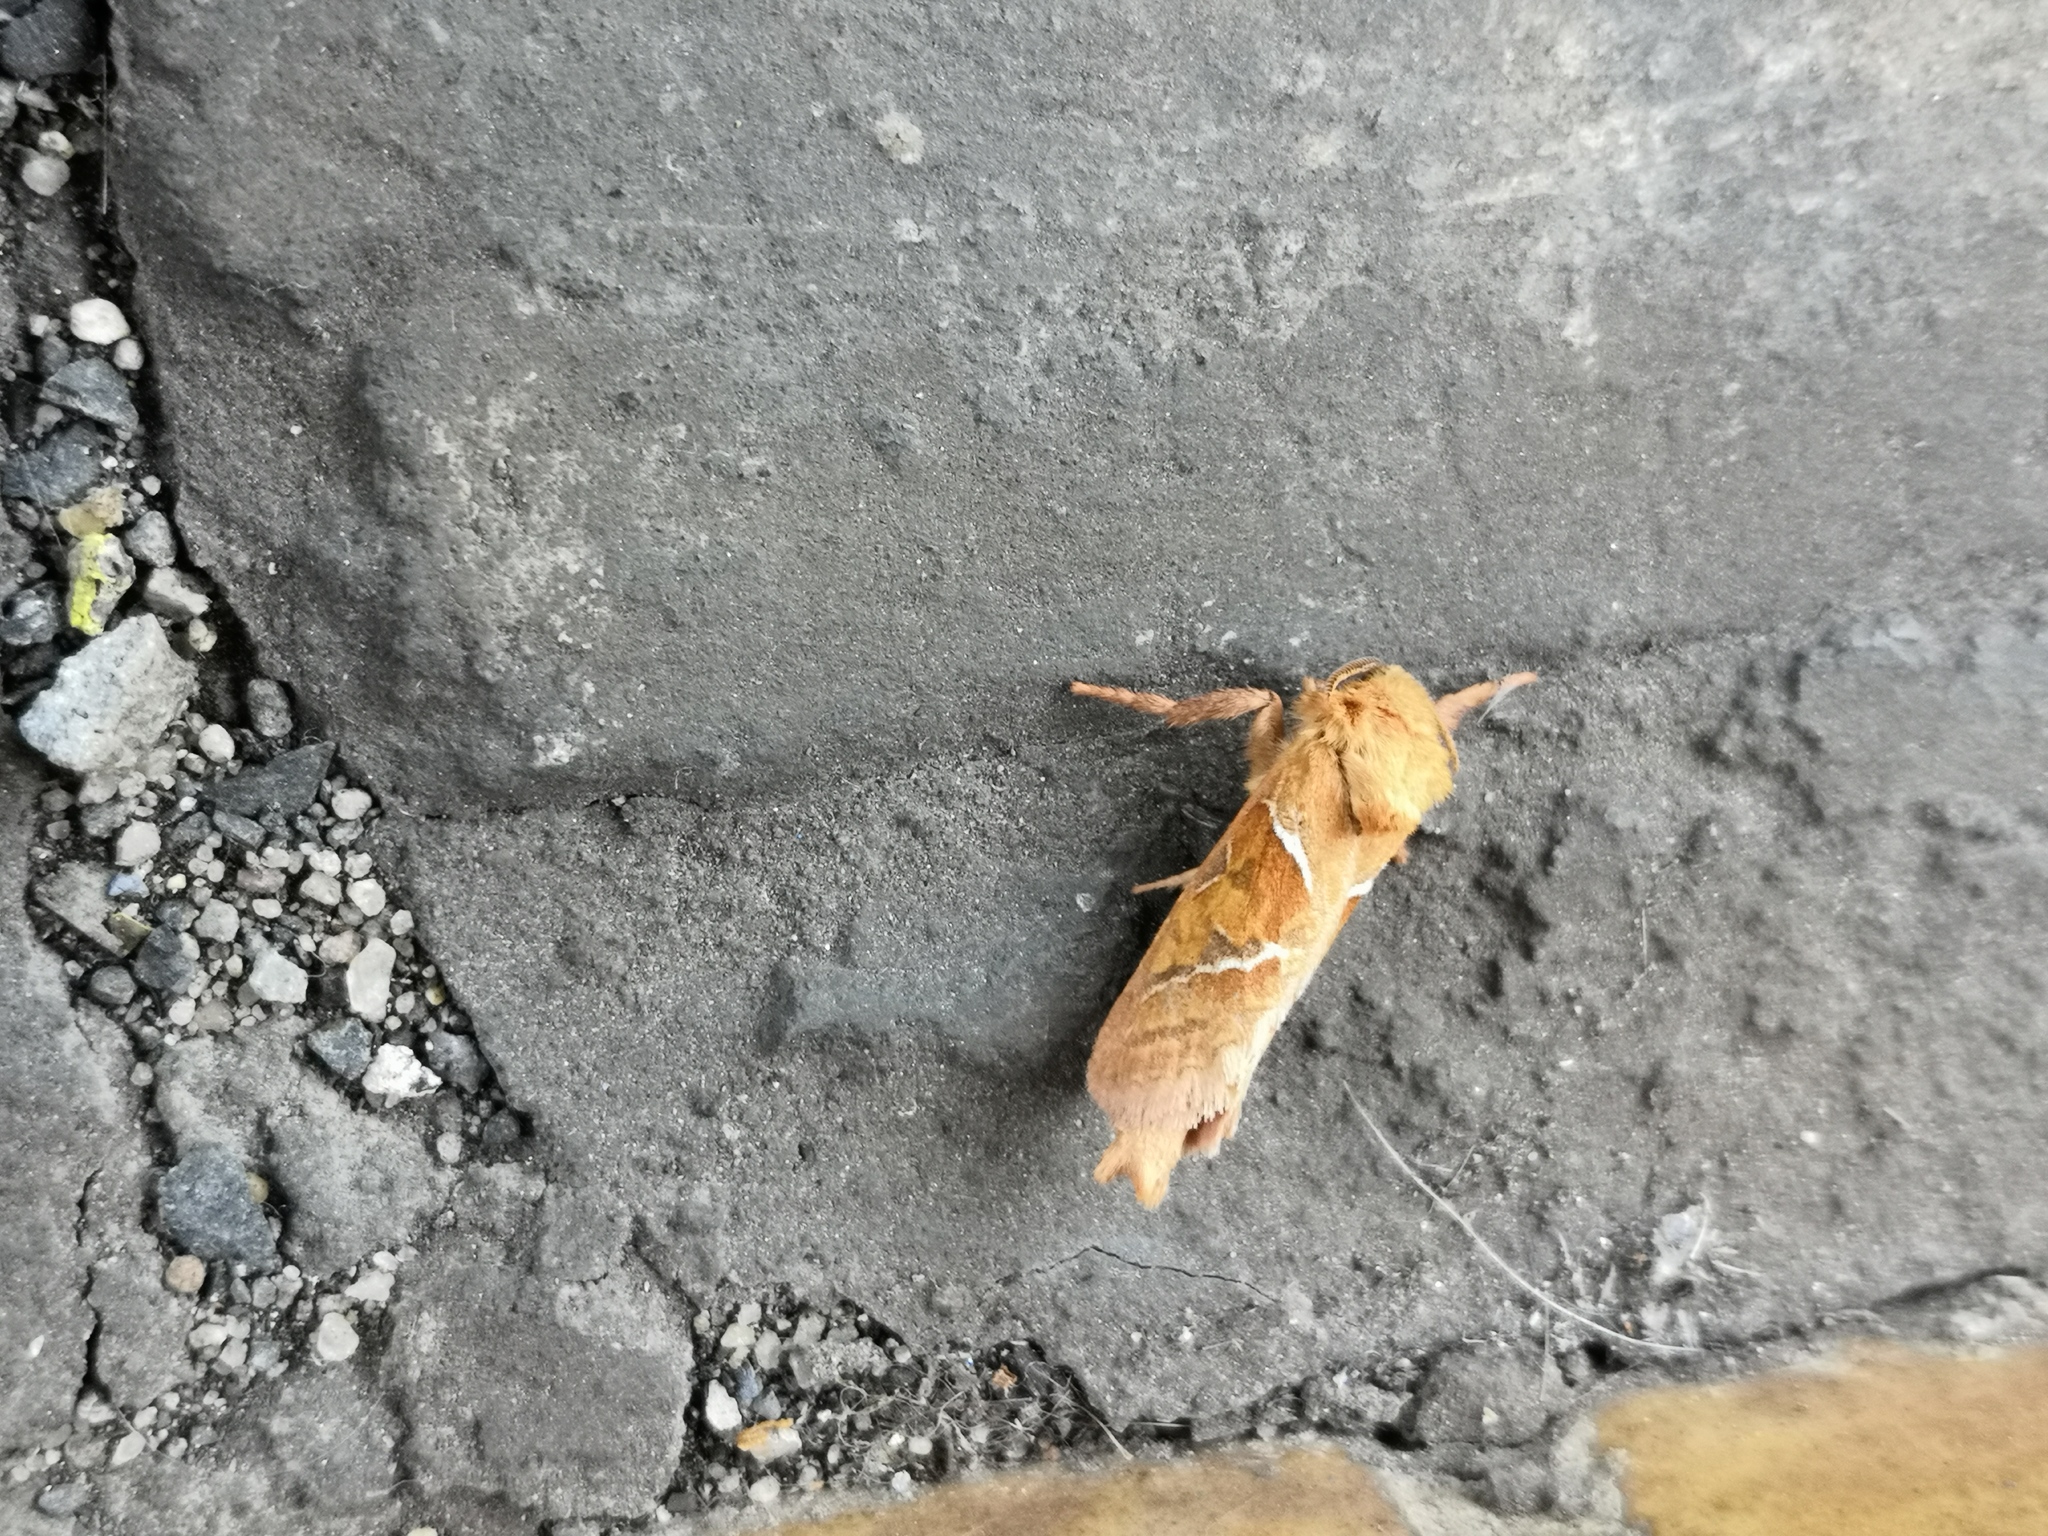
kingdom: Animalia
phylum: Arthropoda
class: Insecta
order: Lepidoptera
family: Hepialidae
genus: Triodia
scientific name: Triodia sylvina
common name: Orange swift
